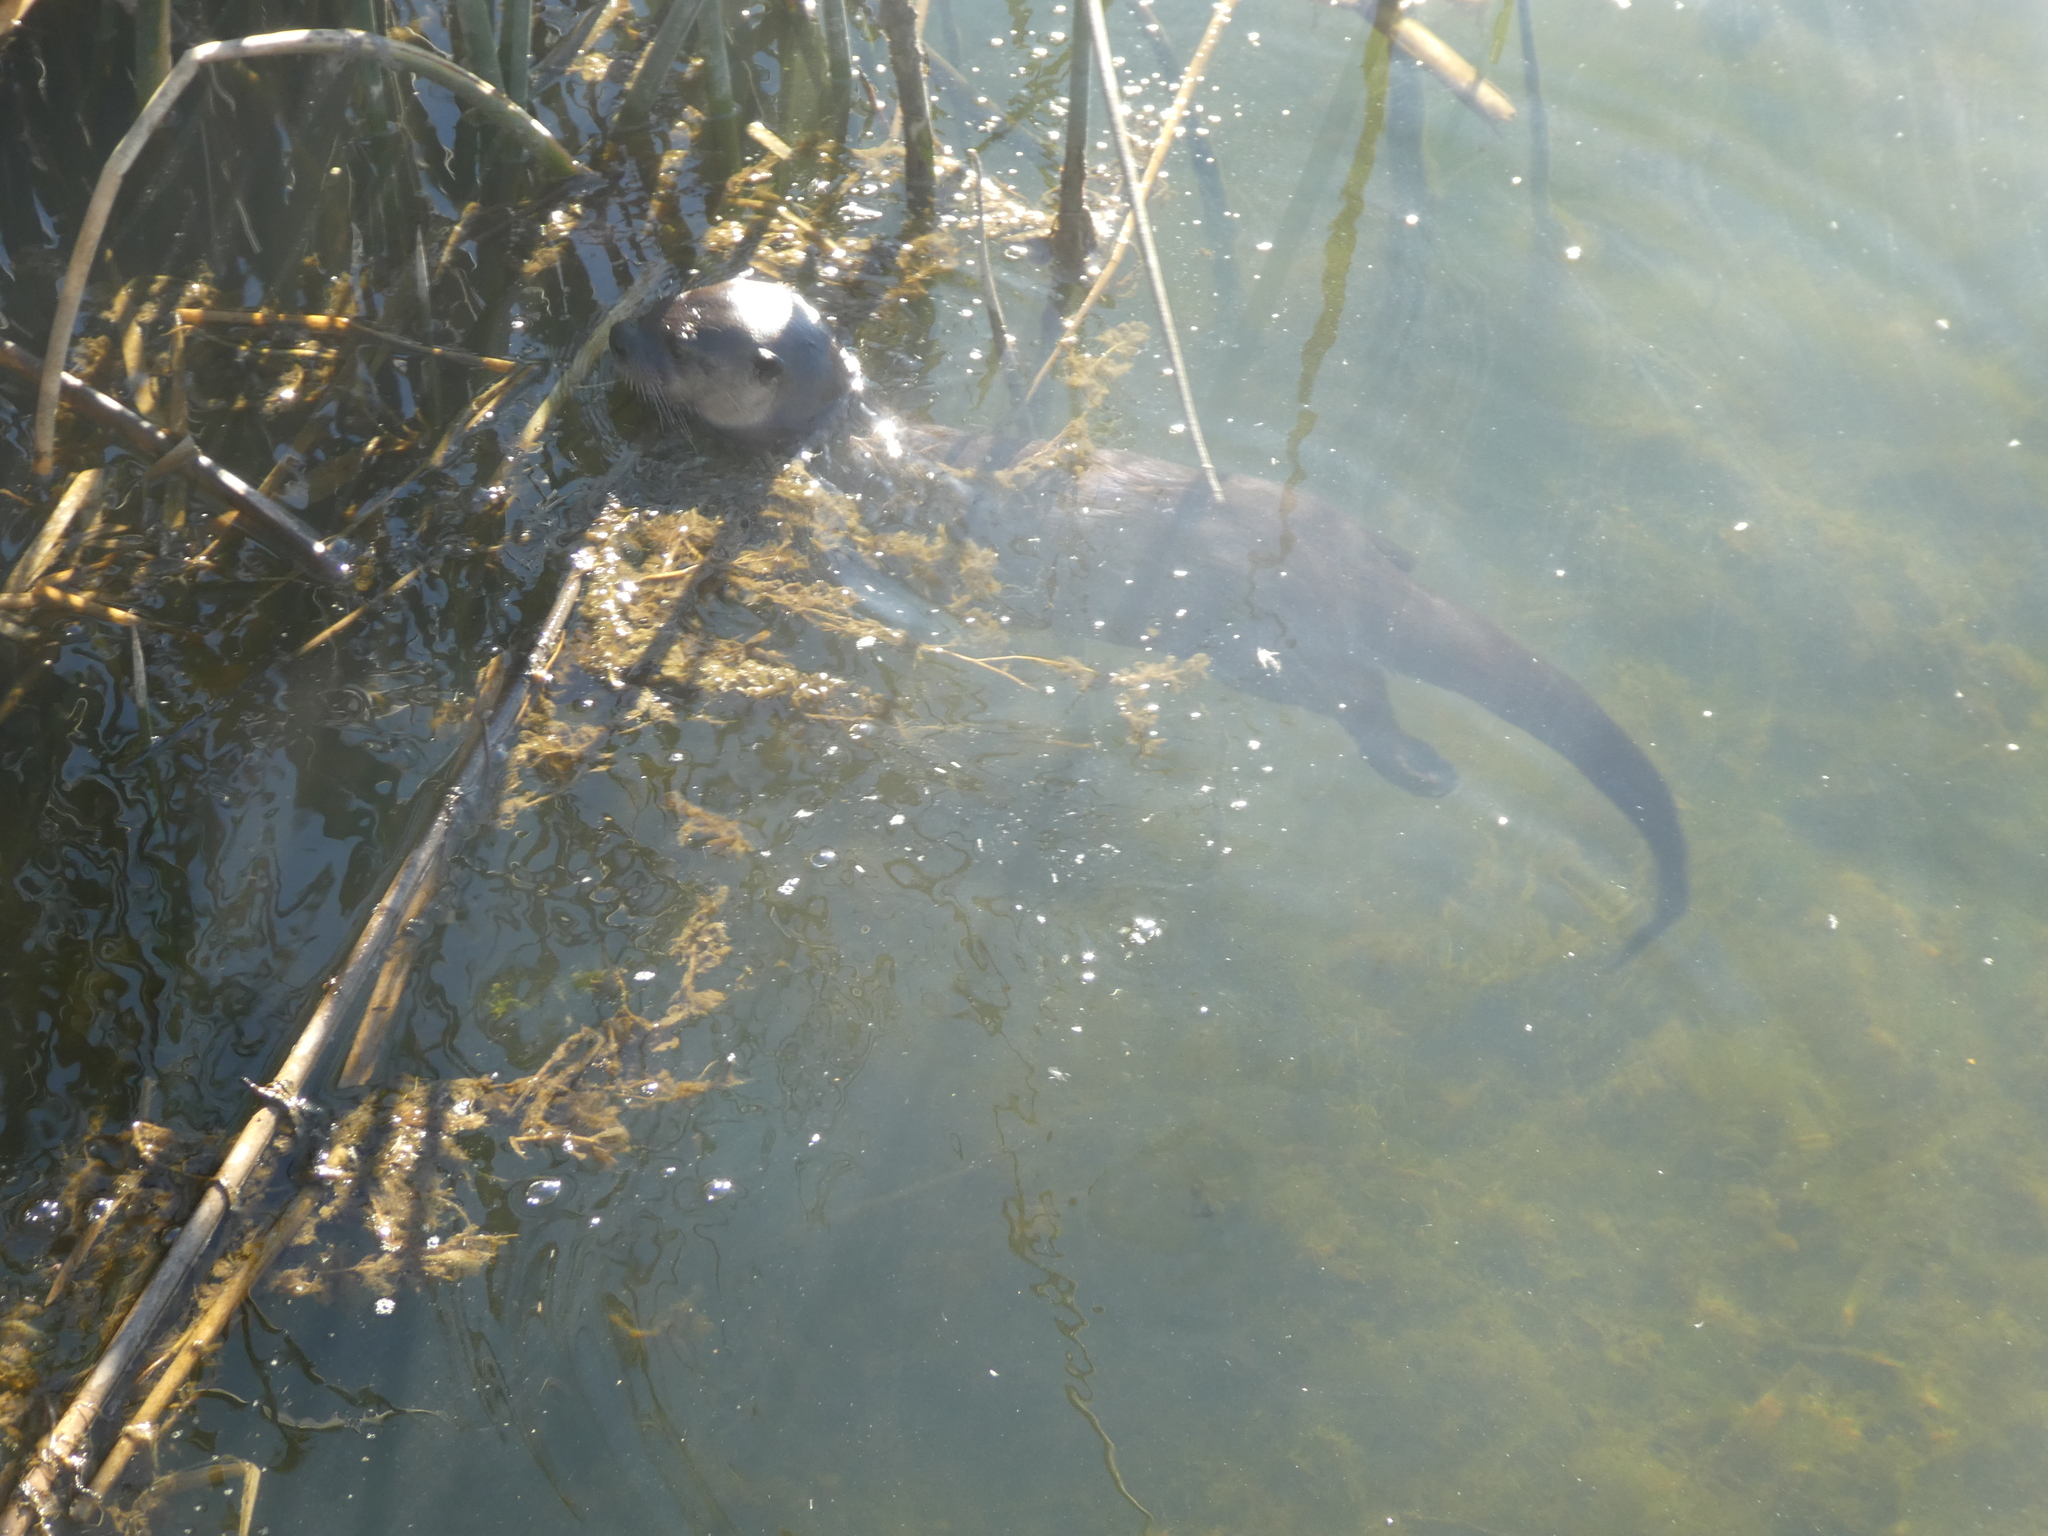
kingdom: Animalia
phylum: Chordata
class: Mammalia
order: Carnivora
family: Mustelidae
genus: Lontra
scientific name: Lontra canadensis
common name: North american river otter
